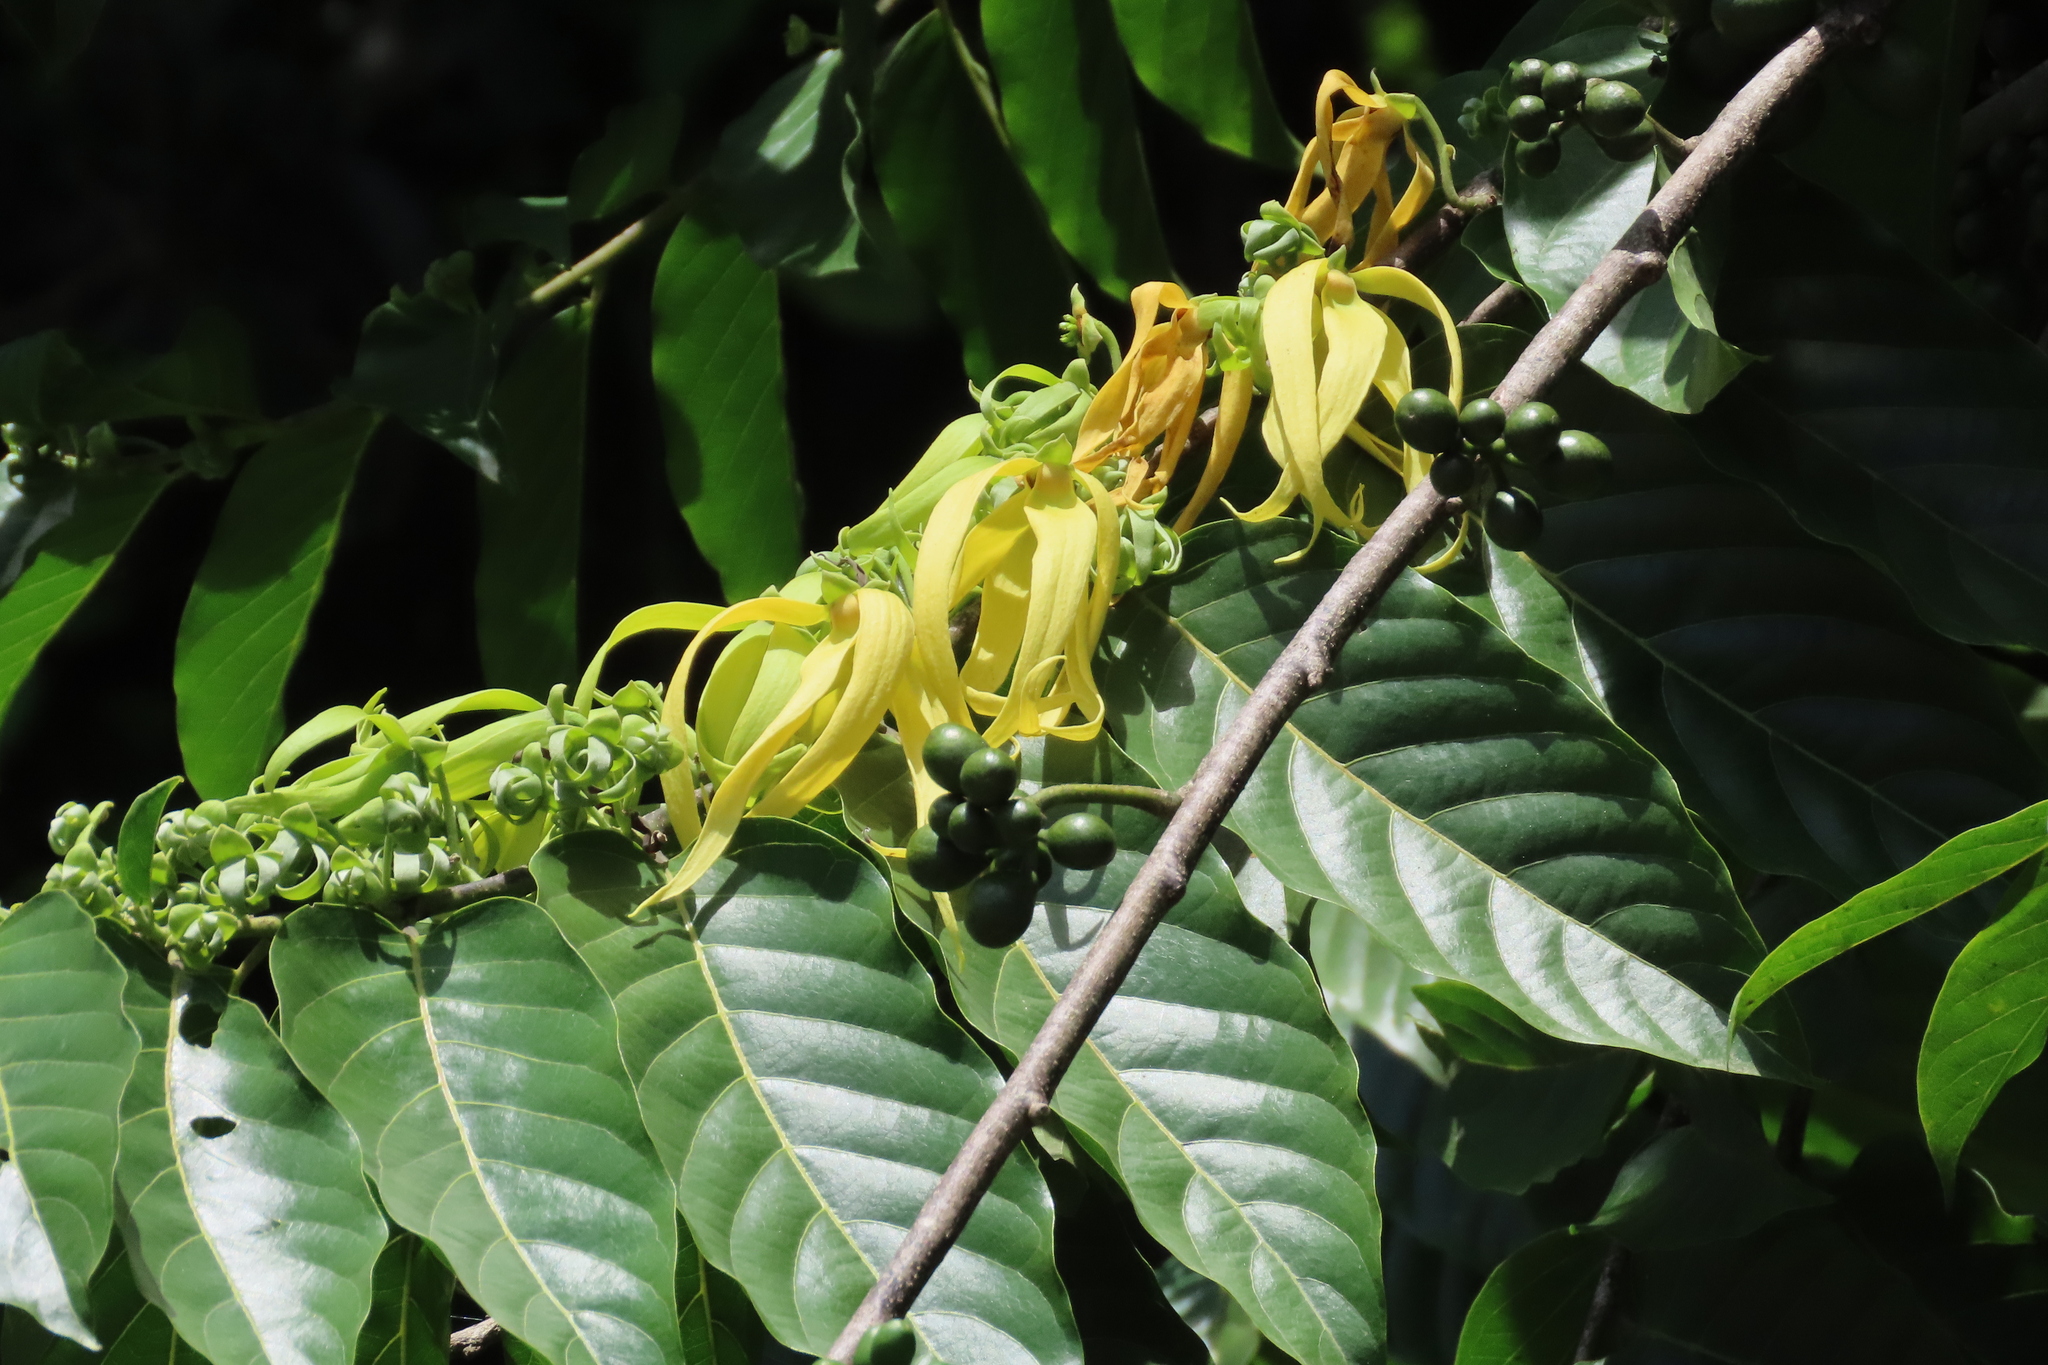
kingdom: Plantae
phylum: Tracheophyta
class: Magnoliopsida
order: Magnoliales
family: Annonaceae
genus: Cananga
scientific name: Cananga odorata
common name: Cananga tree
